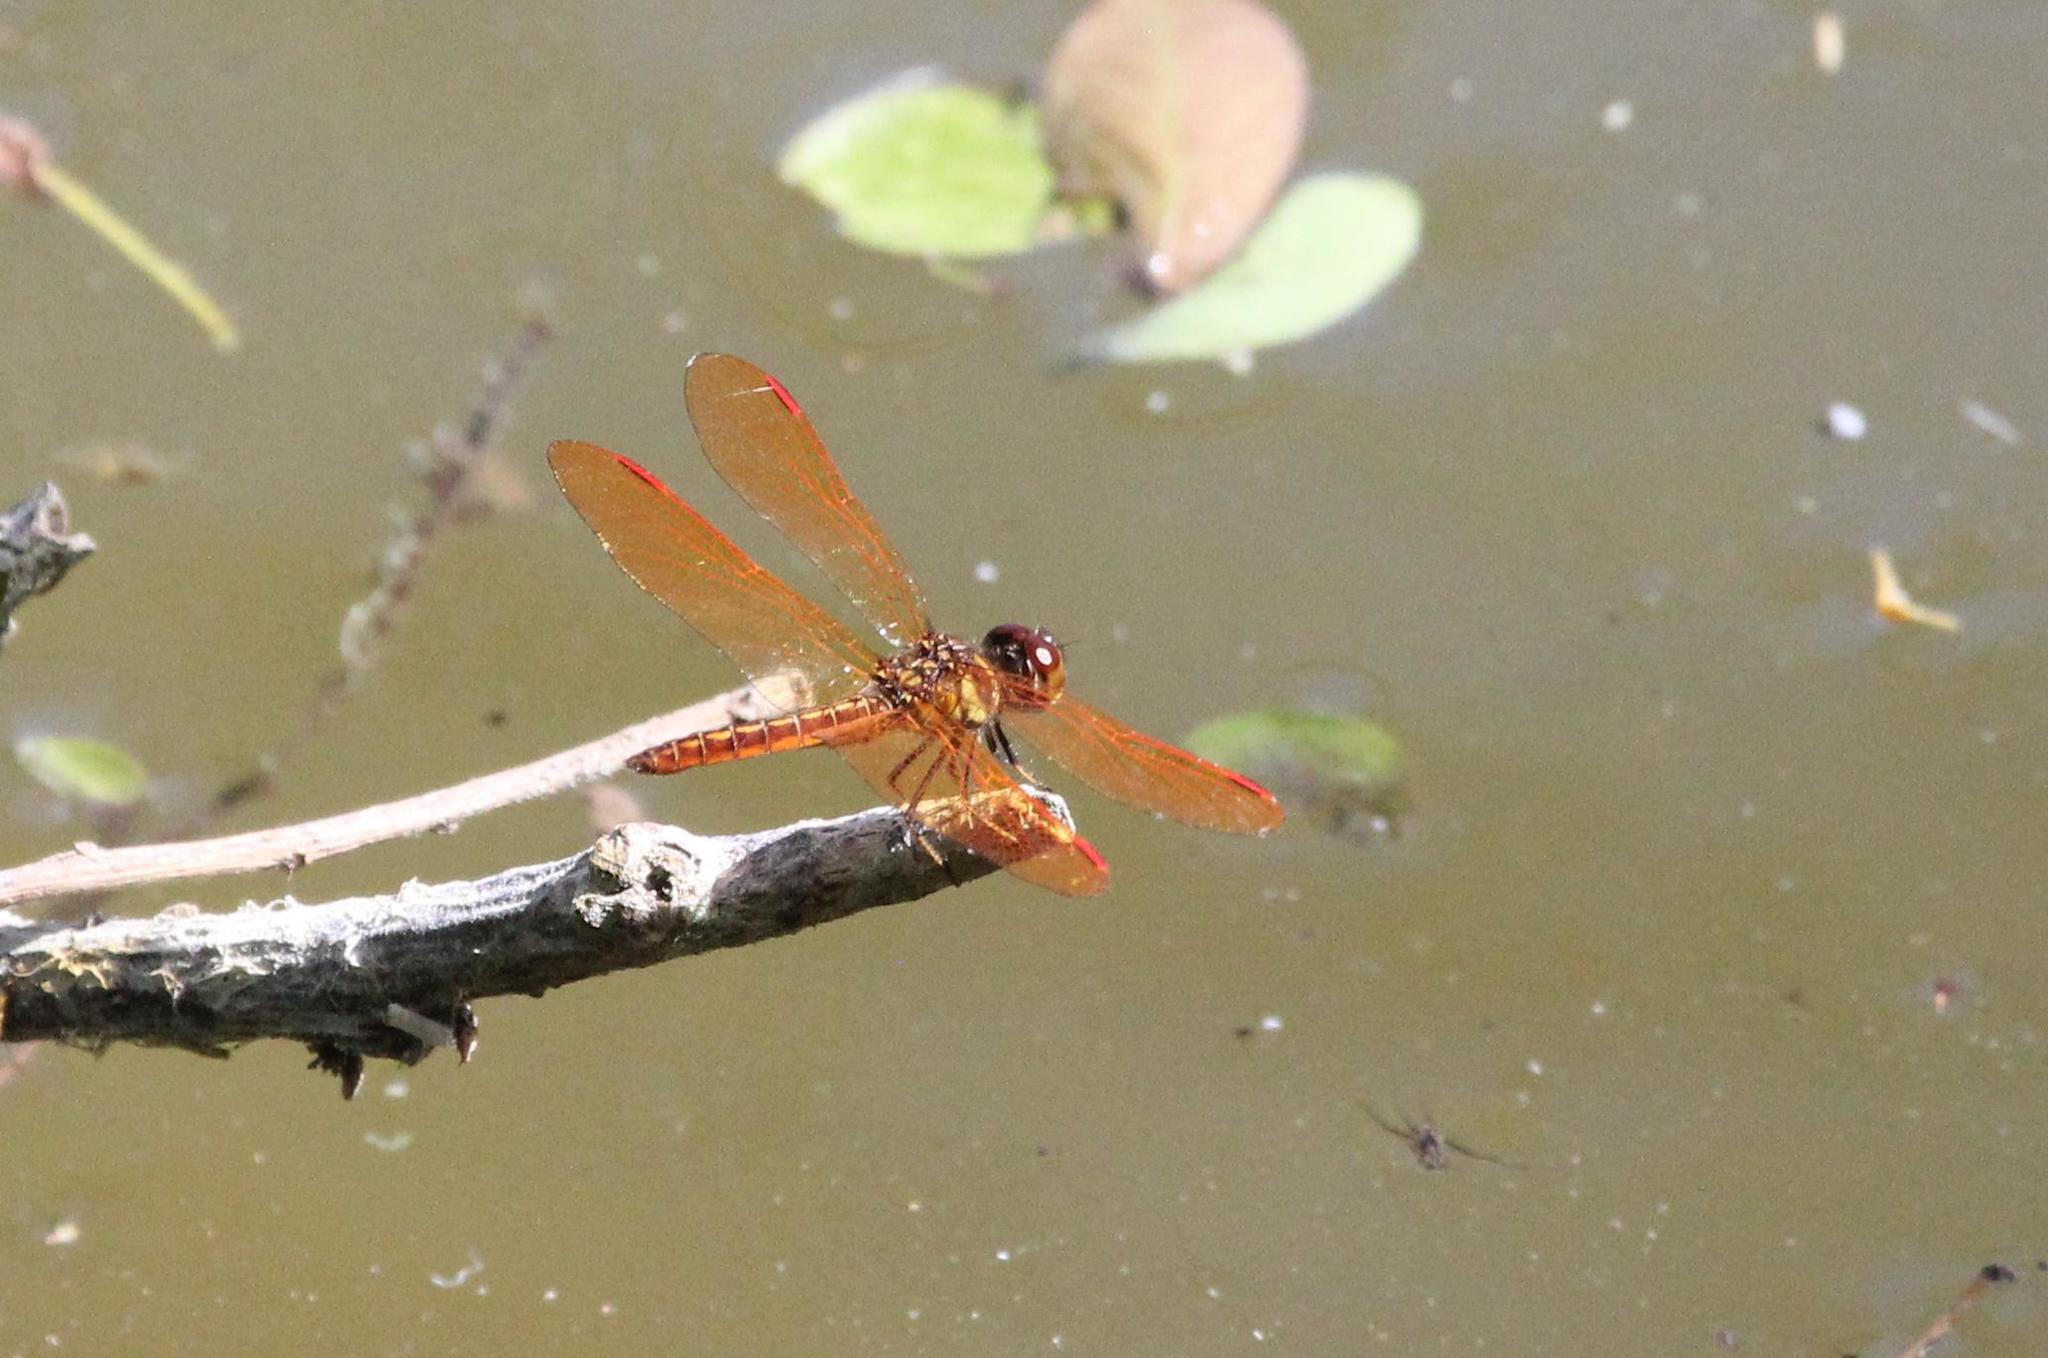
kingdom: Animalia
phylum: Arthropoda
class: Insecta
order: Odonata
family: Libellulidae
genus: Perithemis
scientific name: Perithemis domitia
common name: Slough amberwing
